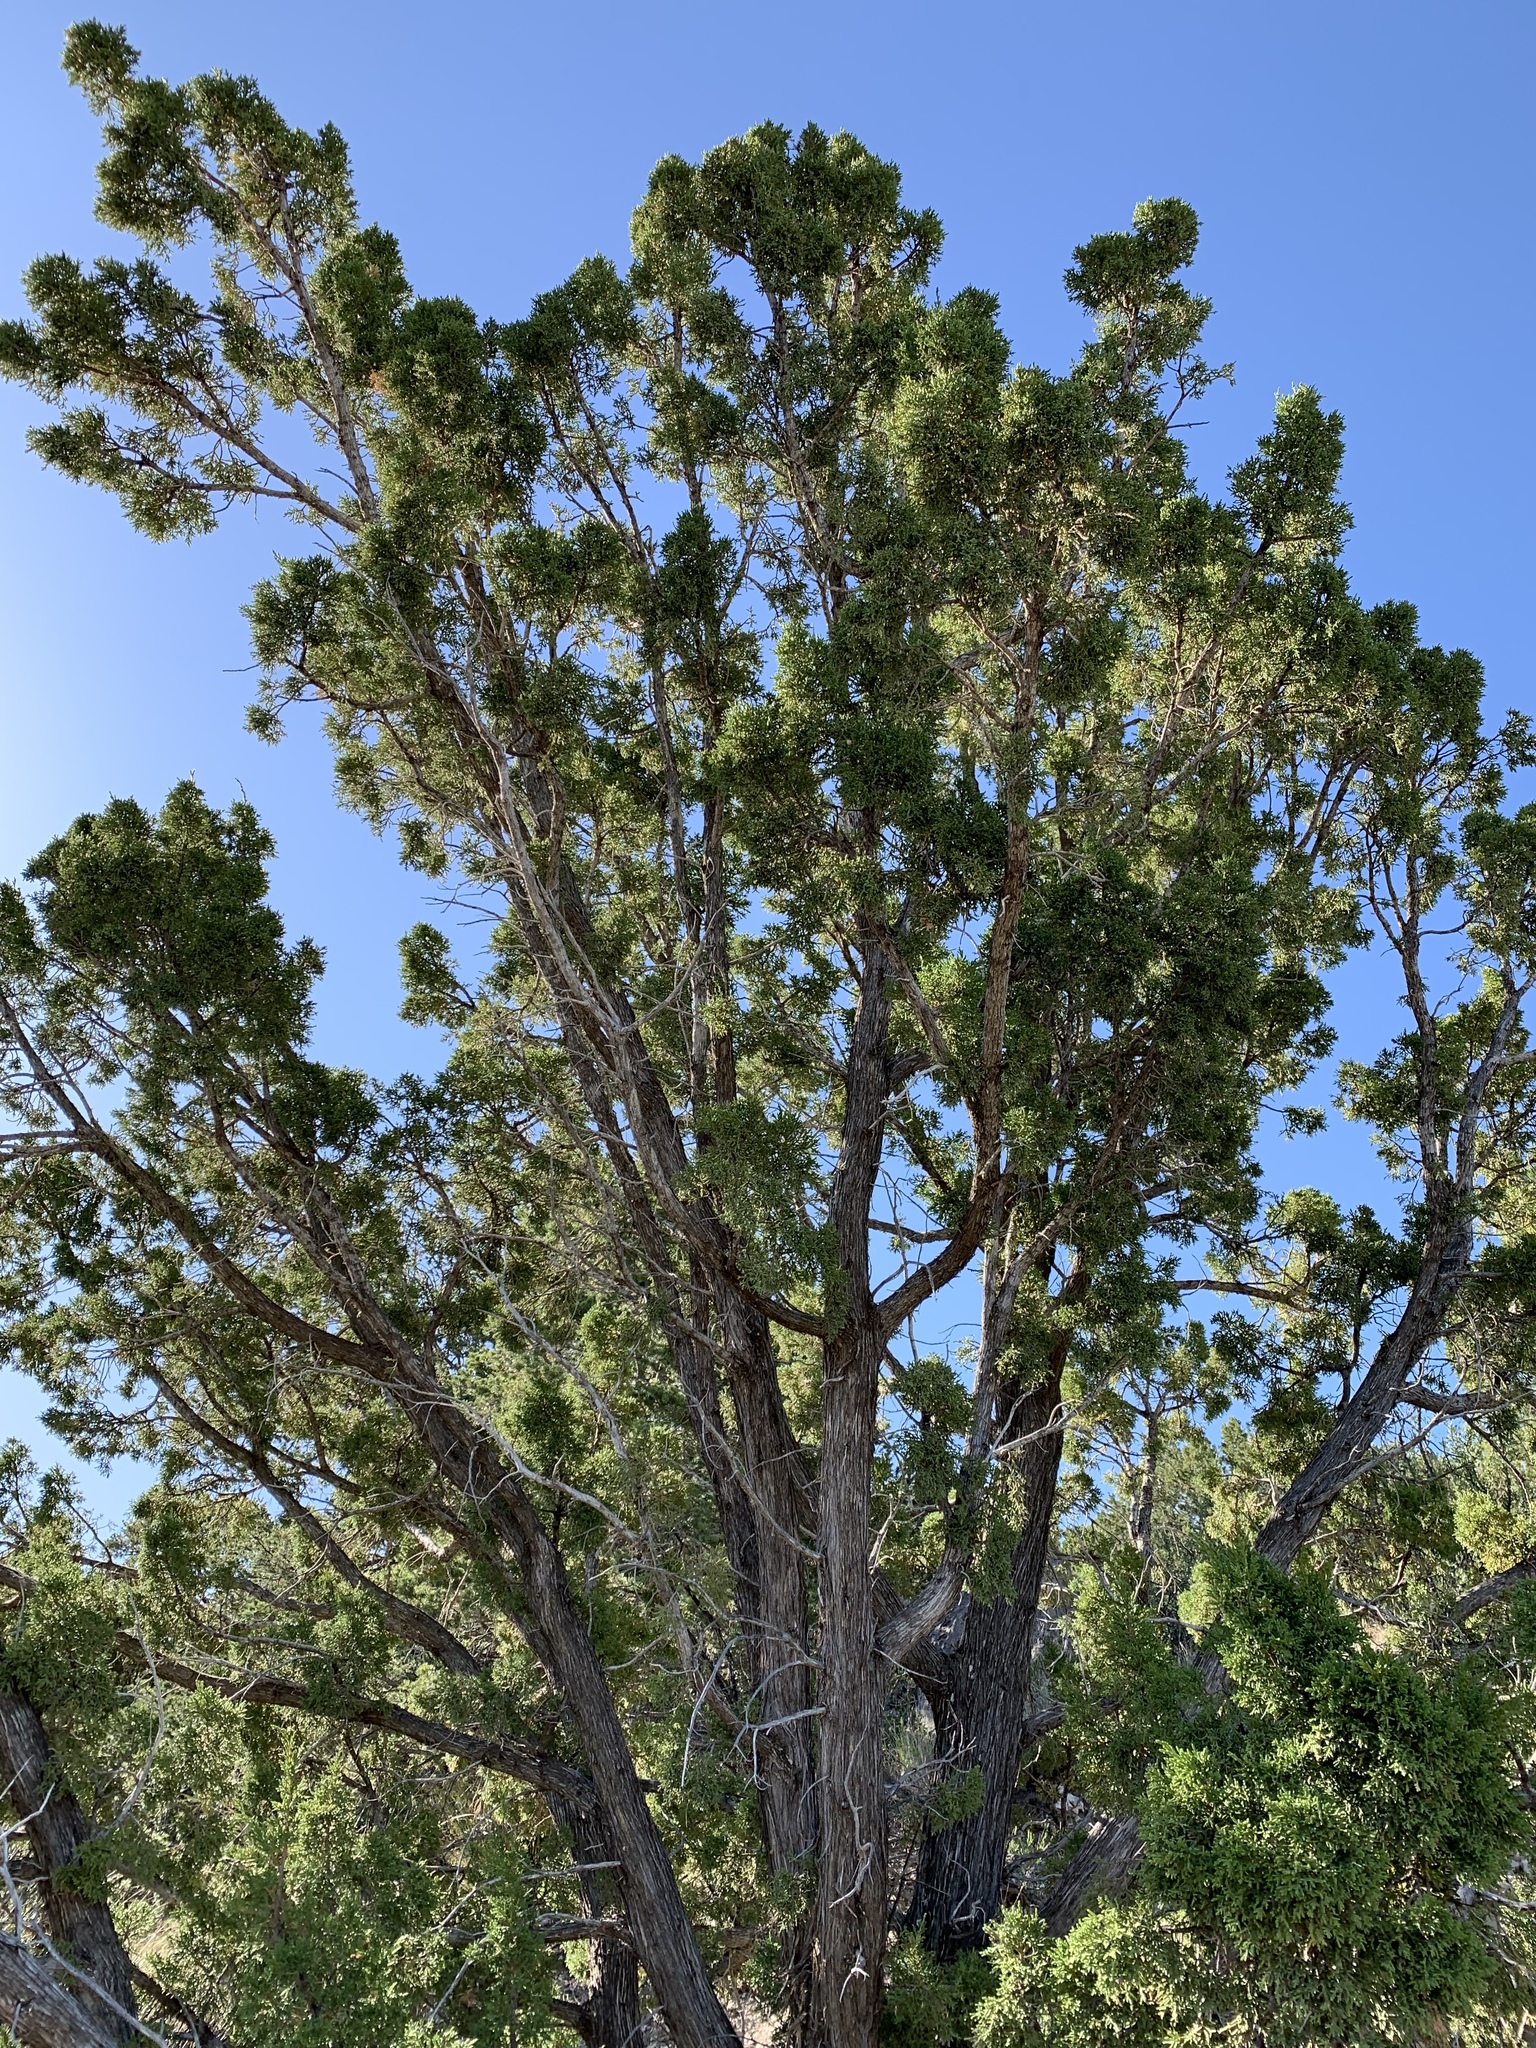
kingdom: Plantae
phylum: Tracheophyta
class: Pinopsida
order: Pinales
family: Cupressaceae
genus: Juniperus
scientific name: Juniperus monosperma
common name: One-seed juniper
